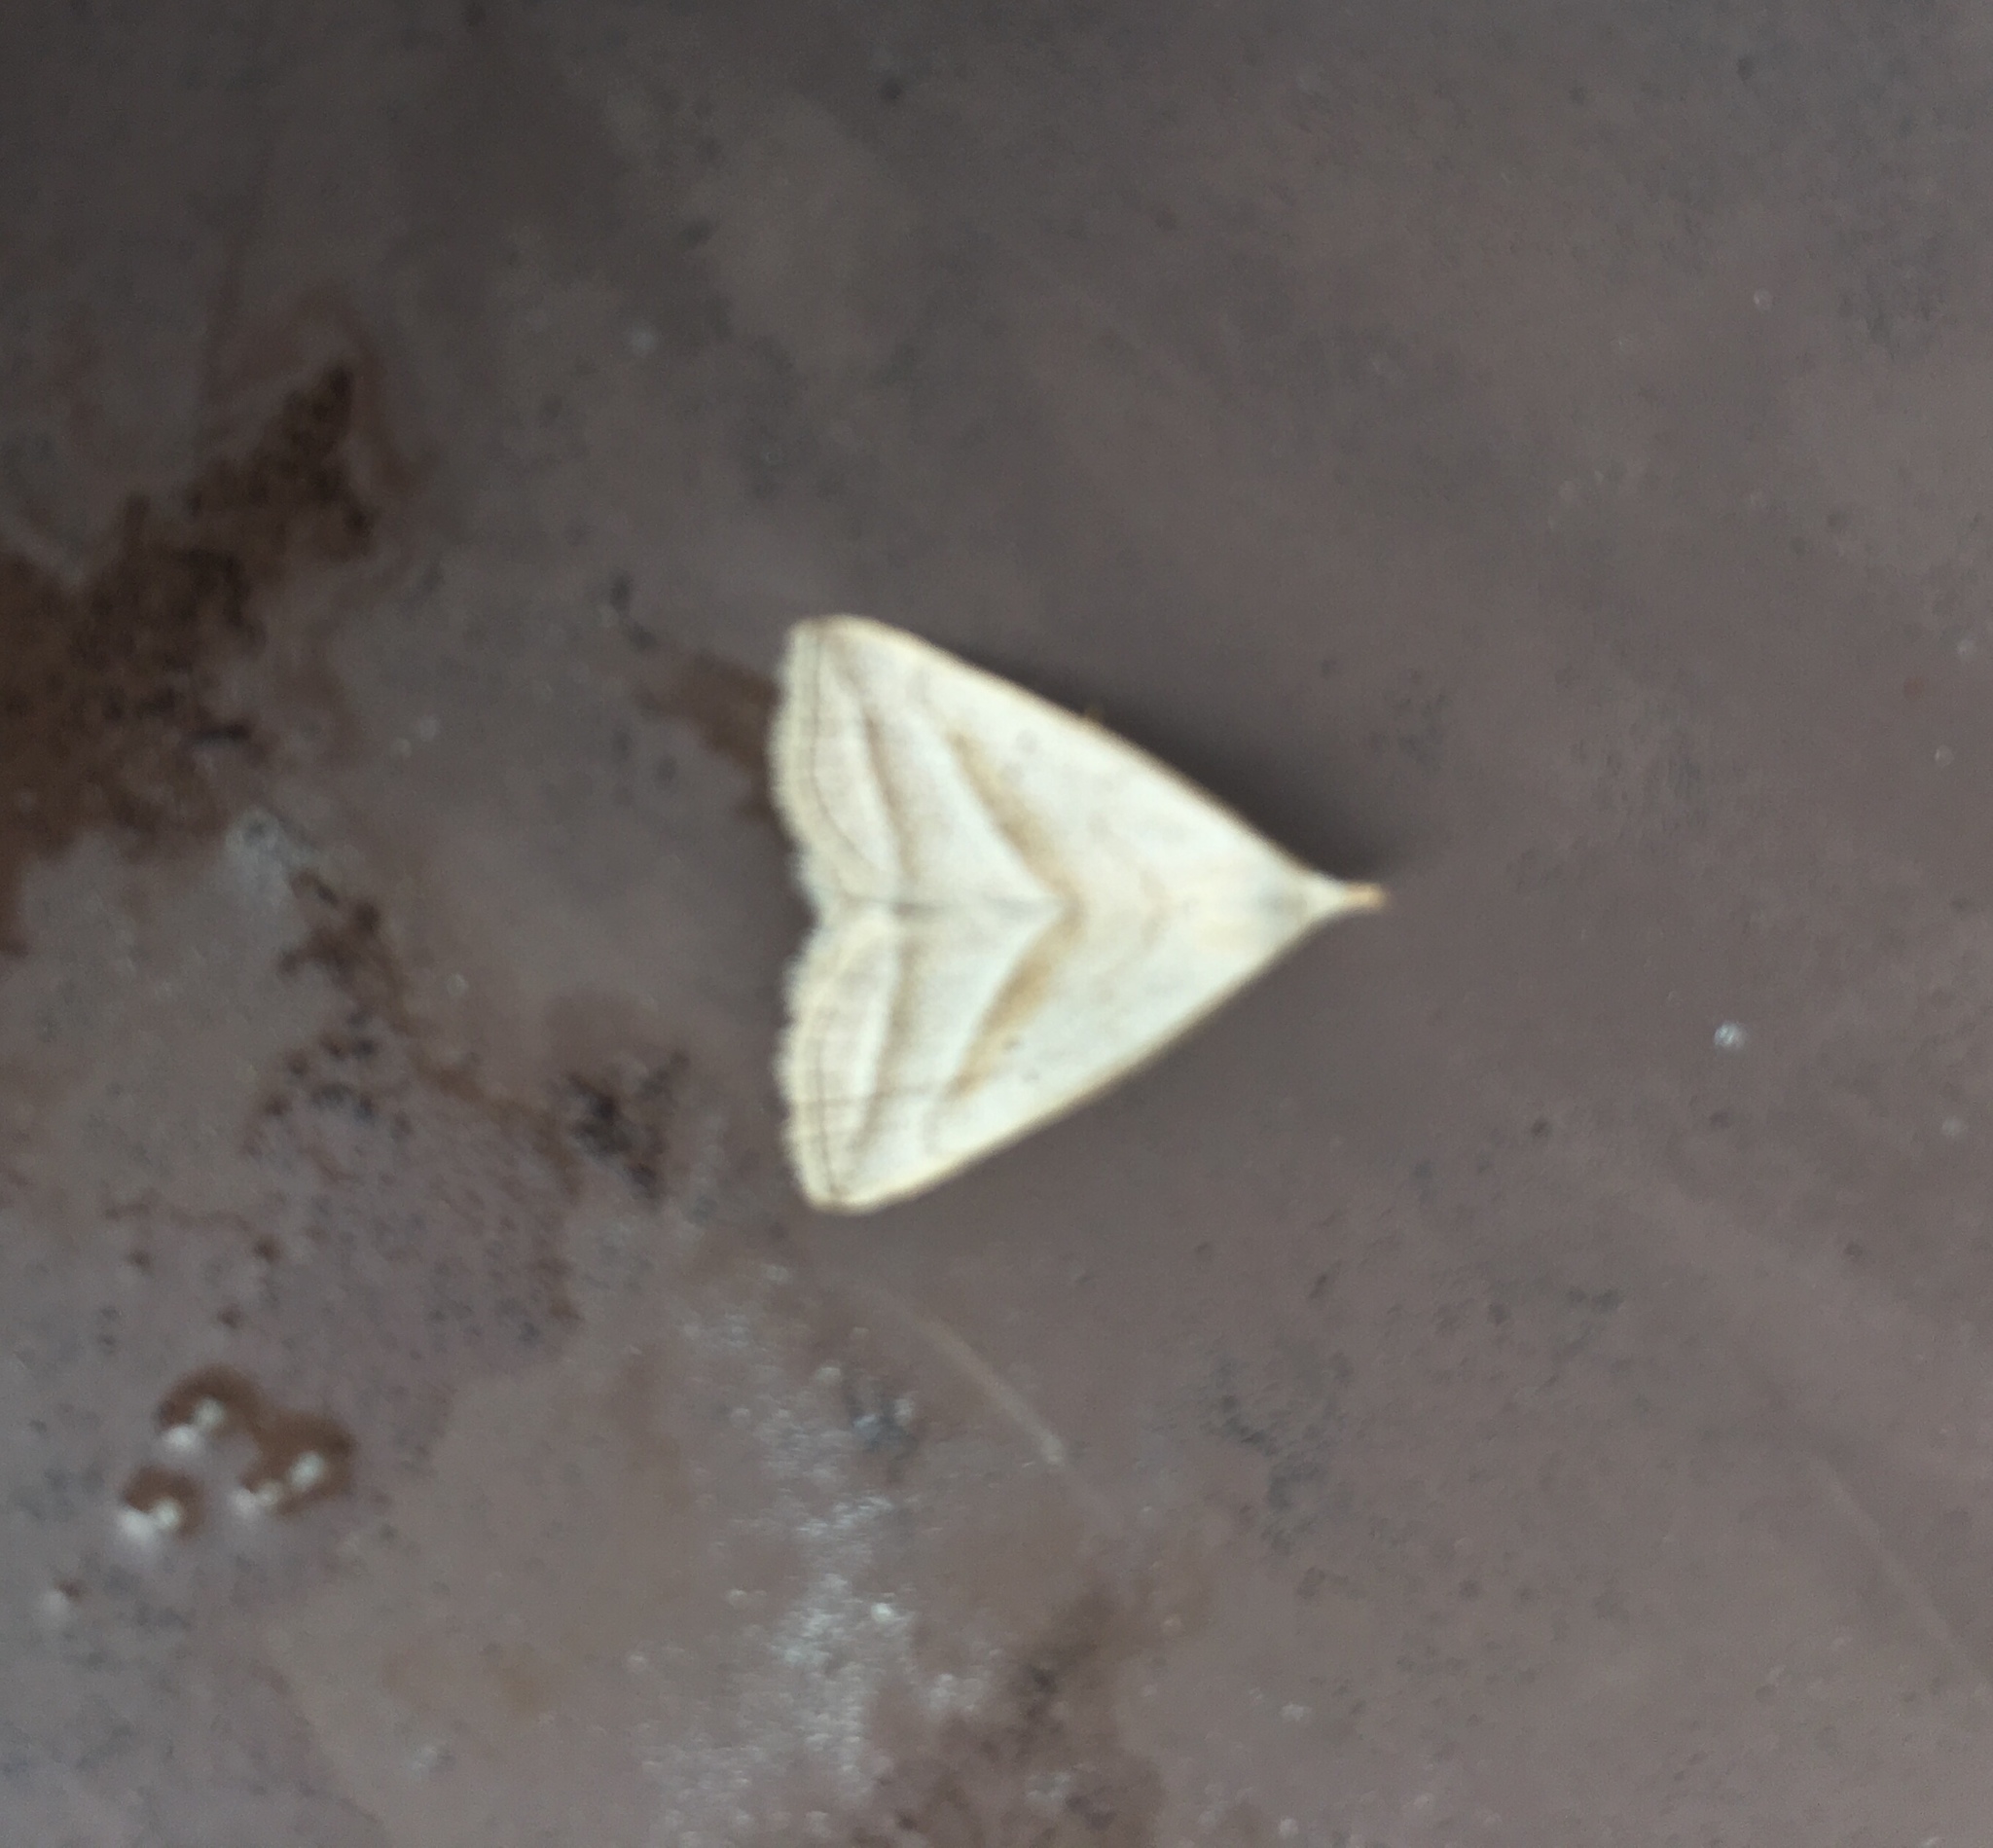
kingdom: Animalia
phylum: Arthropoda
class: Insecta
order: Lepidoptera
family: Erebidae
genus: Macrochilo
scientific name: Macrochilo absorptalis
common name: Slant-lined owlet
